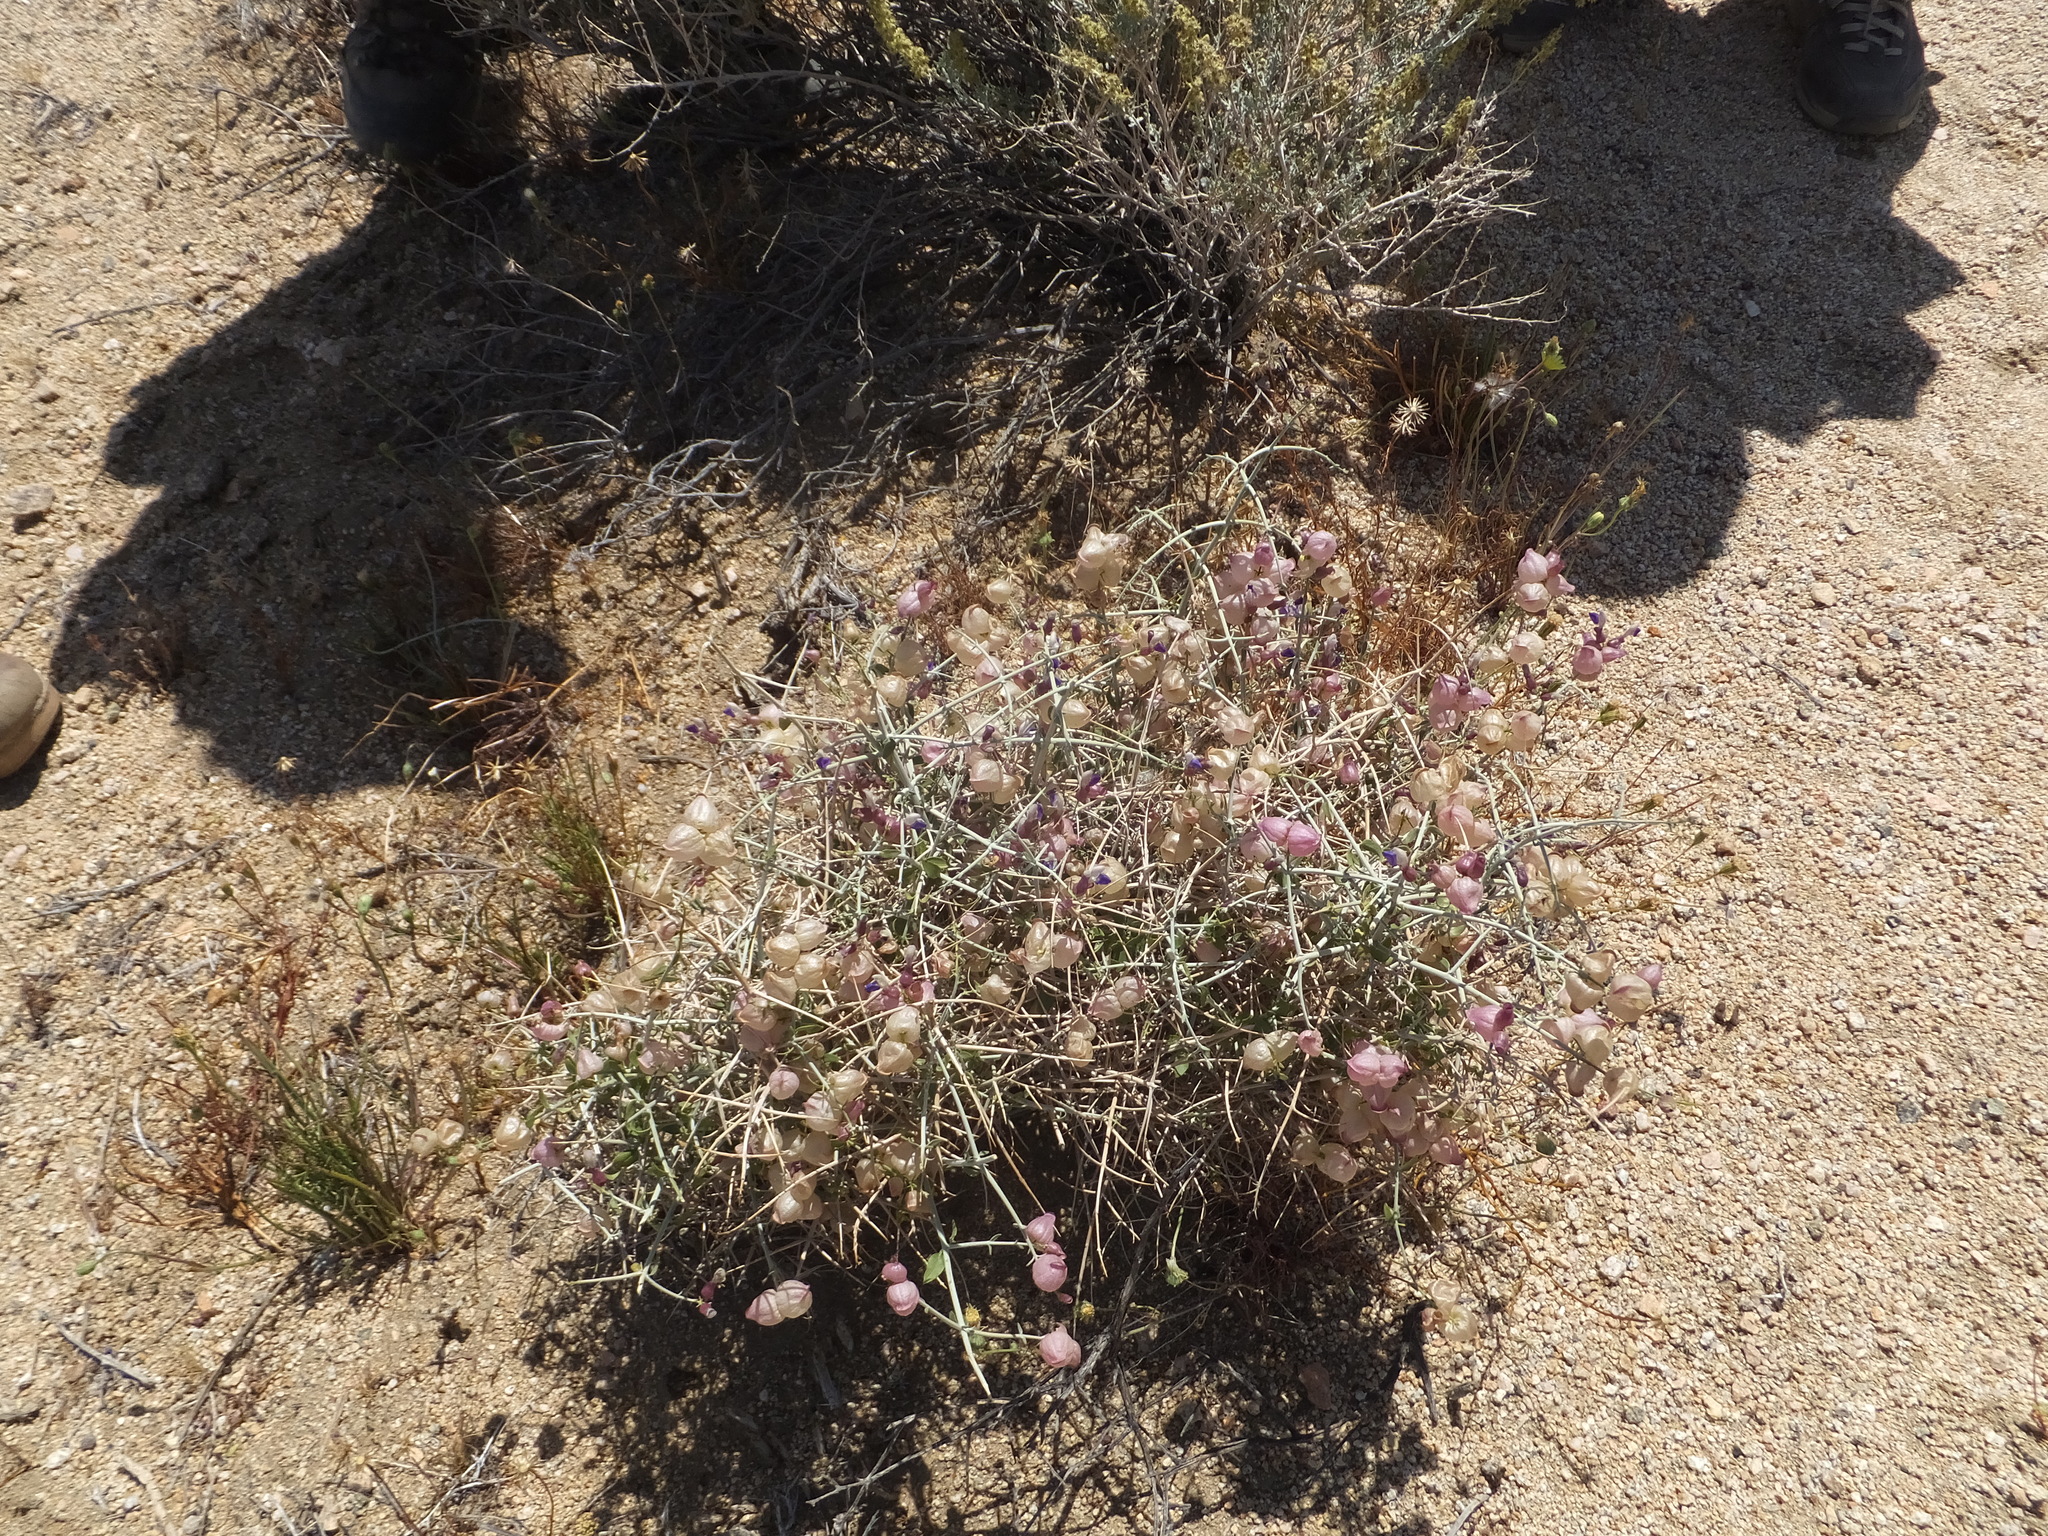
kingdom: Plantae
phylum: Tracheophyta
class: Magnoliopsida
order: Lamiales
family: Lamiaceae
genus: Scutellaria
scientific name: Scutellaria mexicana
